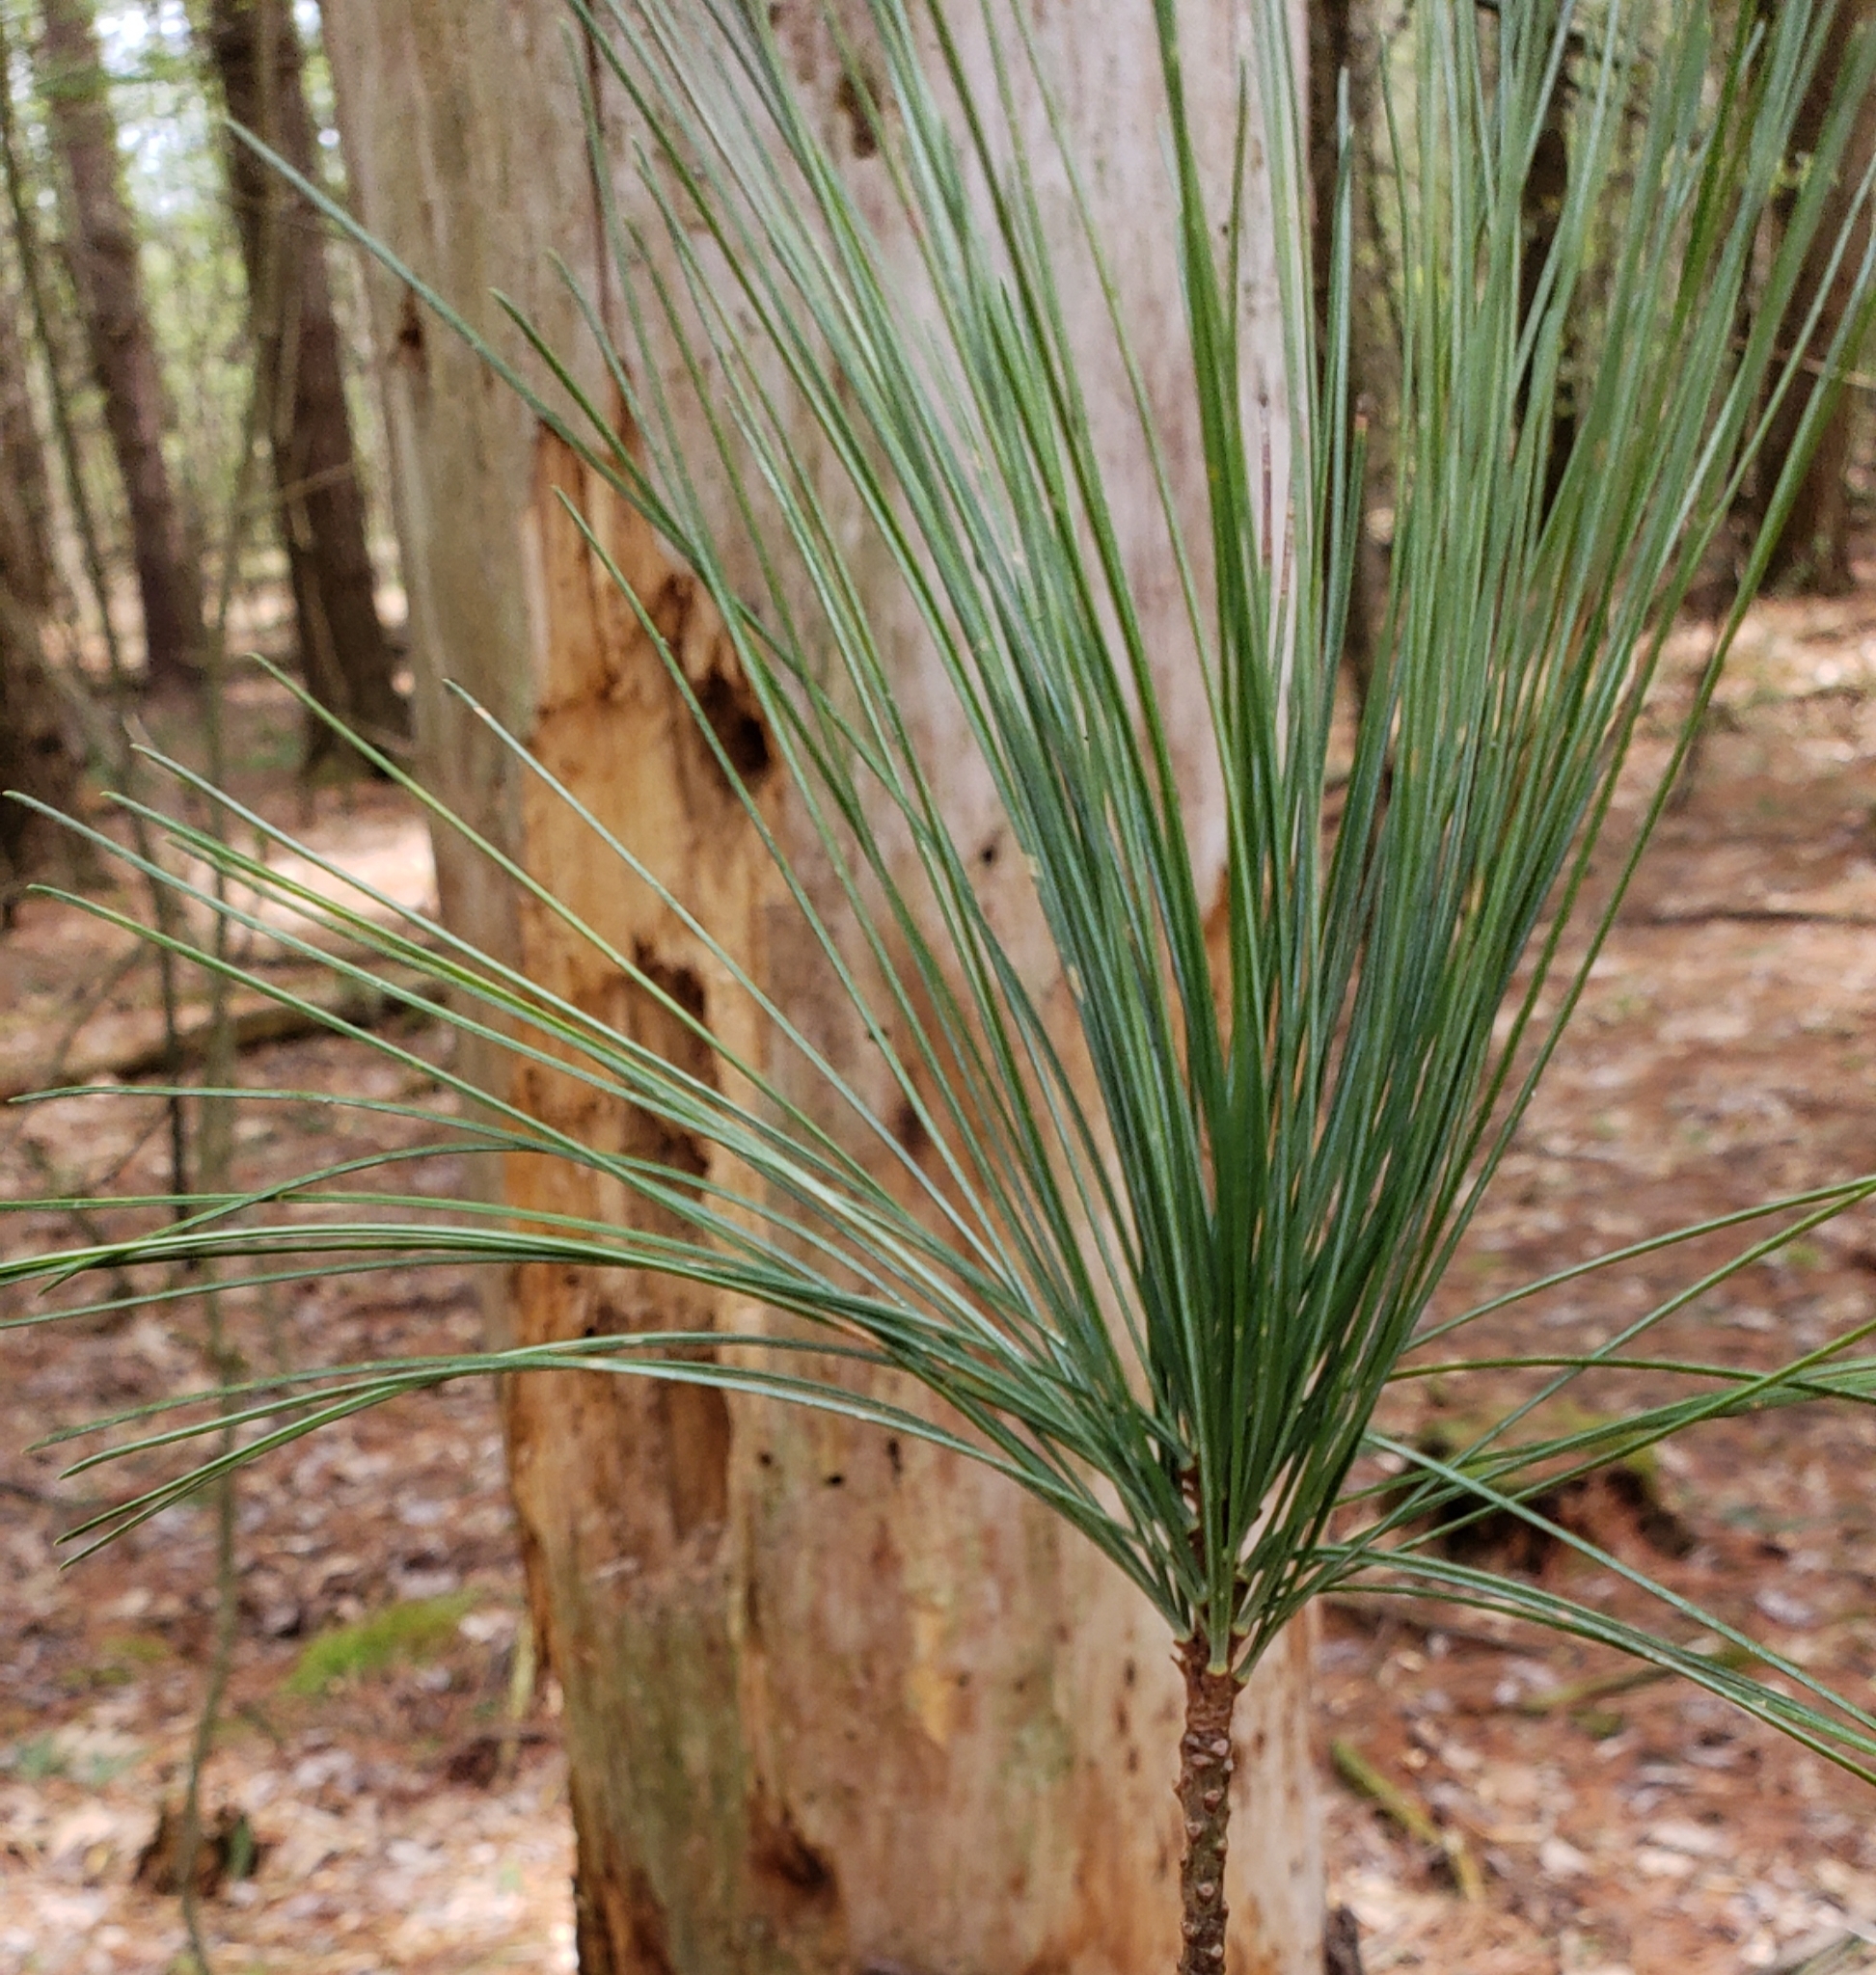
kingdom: Plantae
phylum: Tracheophyta
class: Pinopsida
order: Pinales
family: Pinaceae
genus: Pinus
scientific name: Pinus strobus
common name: Weymouth pine
